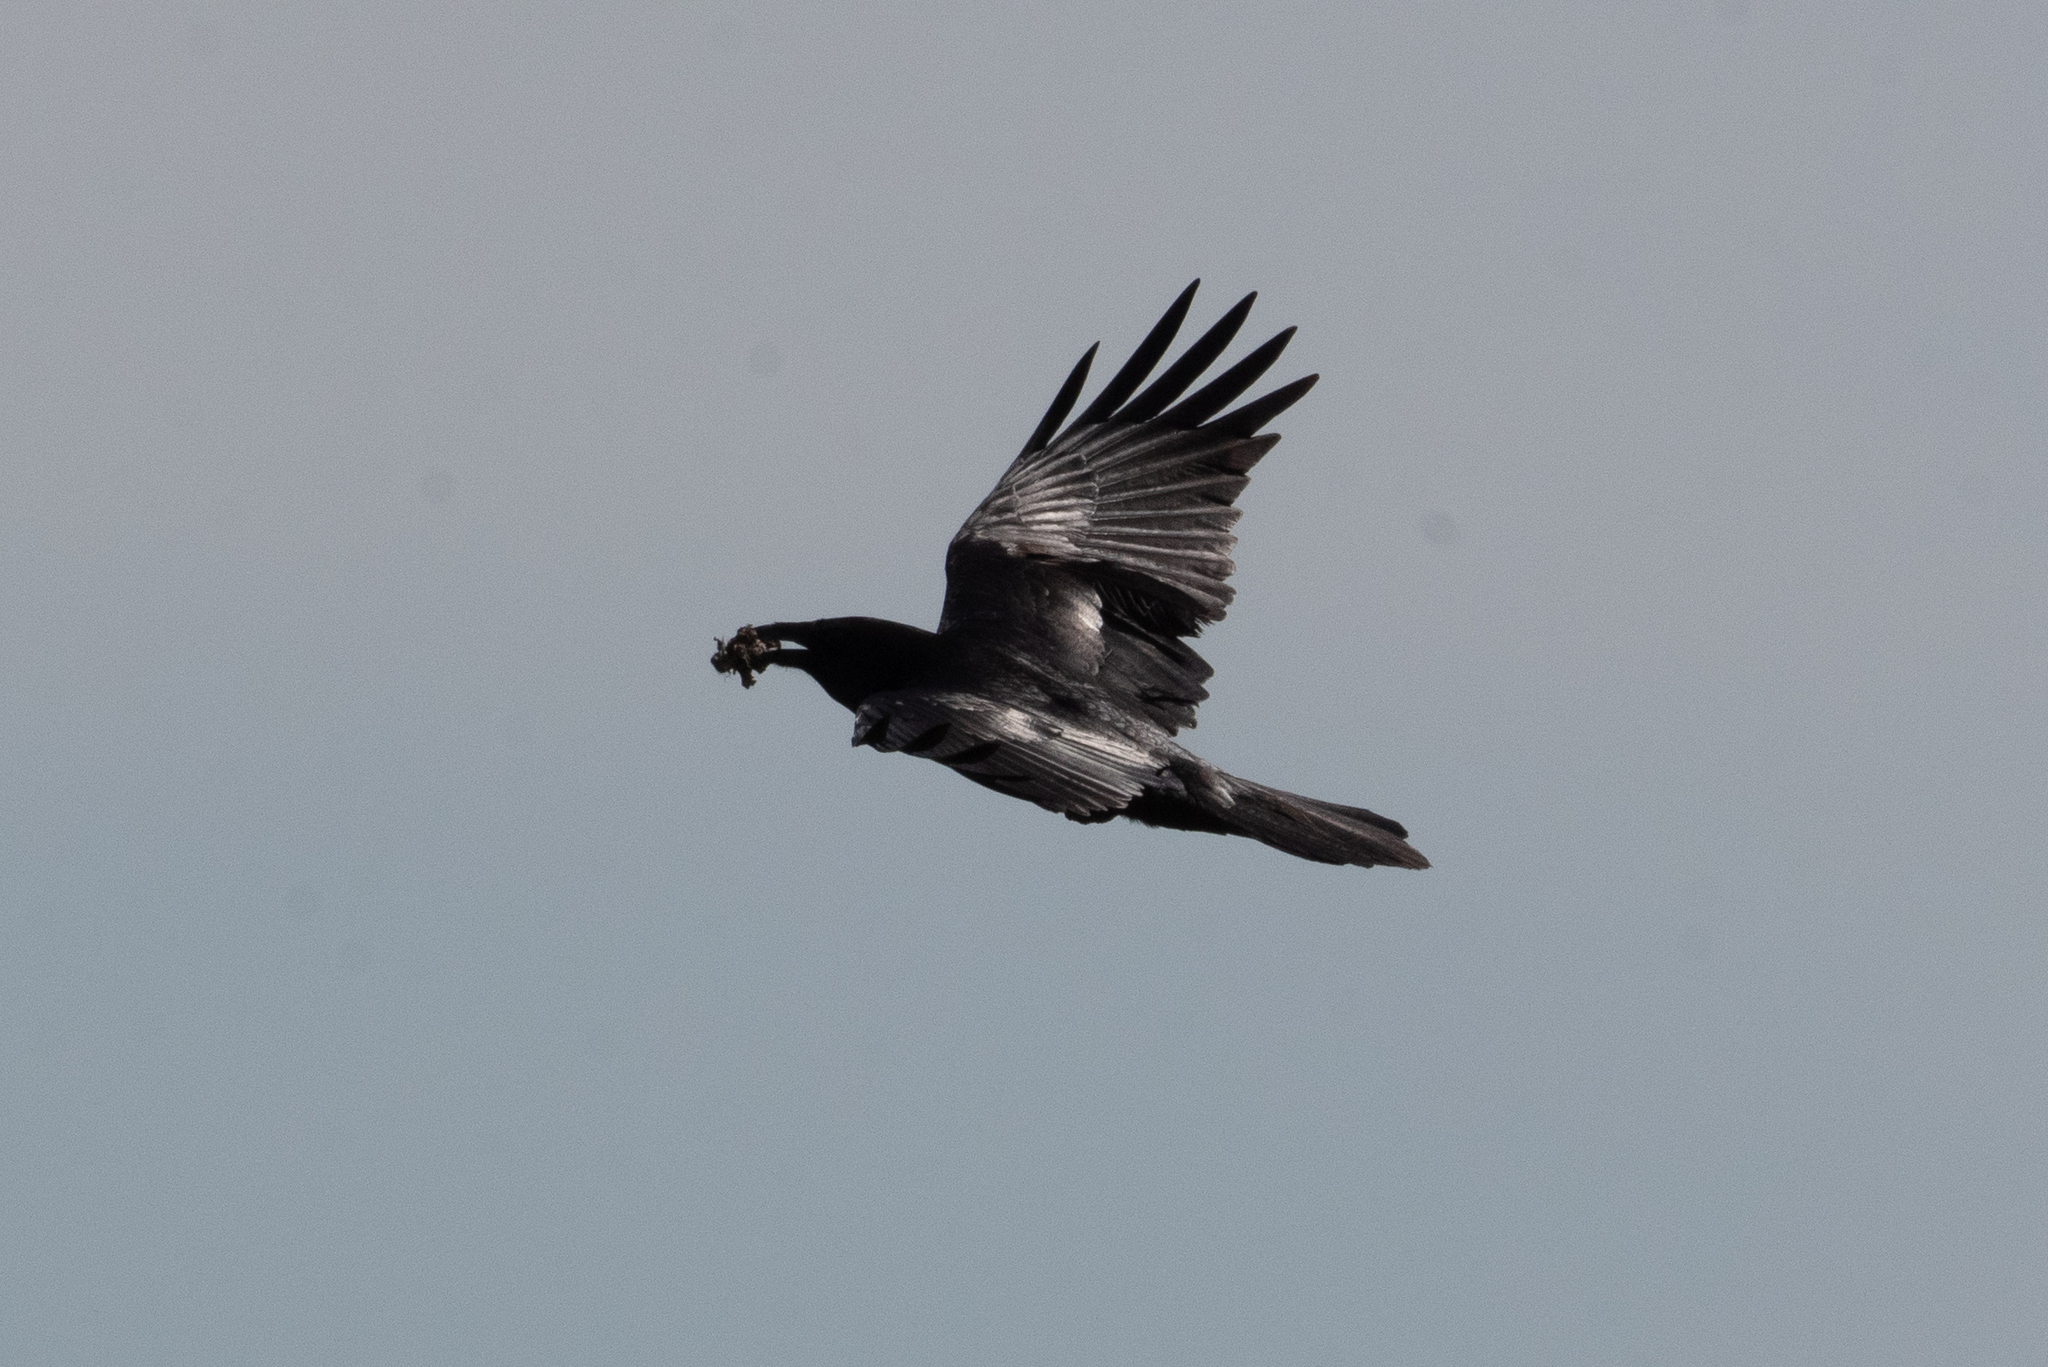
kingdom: Animalia
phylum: Chordata
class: Aves
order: Passeriformes
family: Corvidae
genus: Corvus
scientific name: Corvus corax
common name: Common raven
